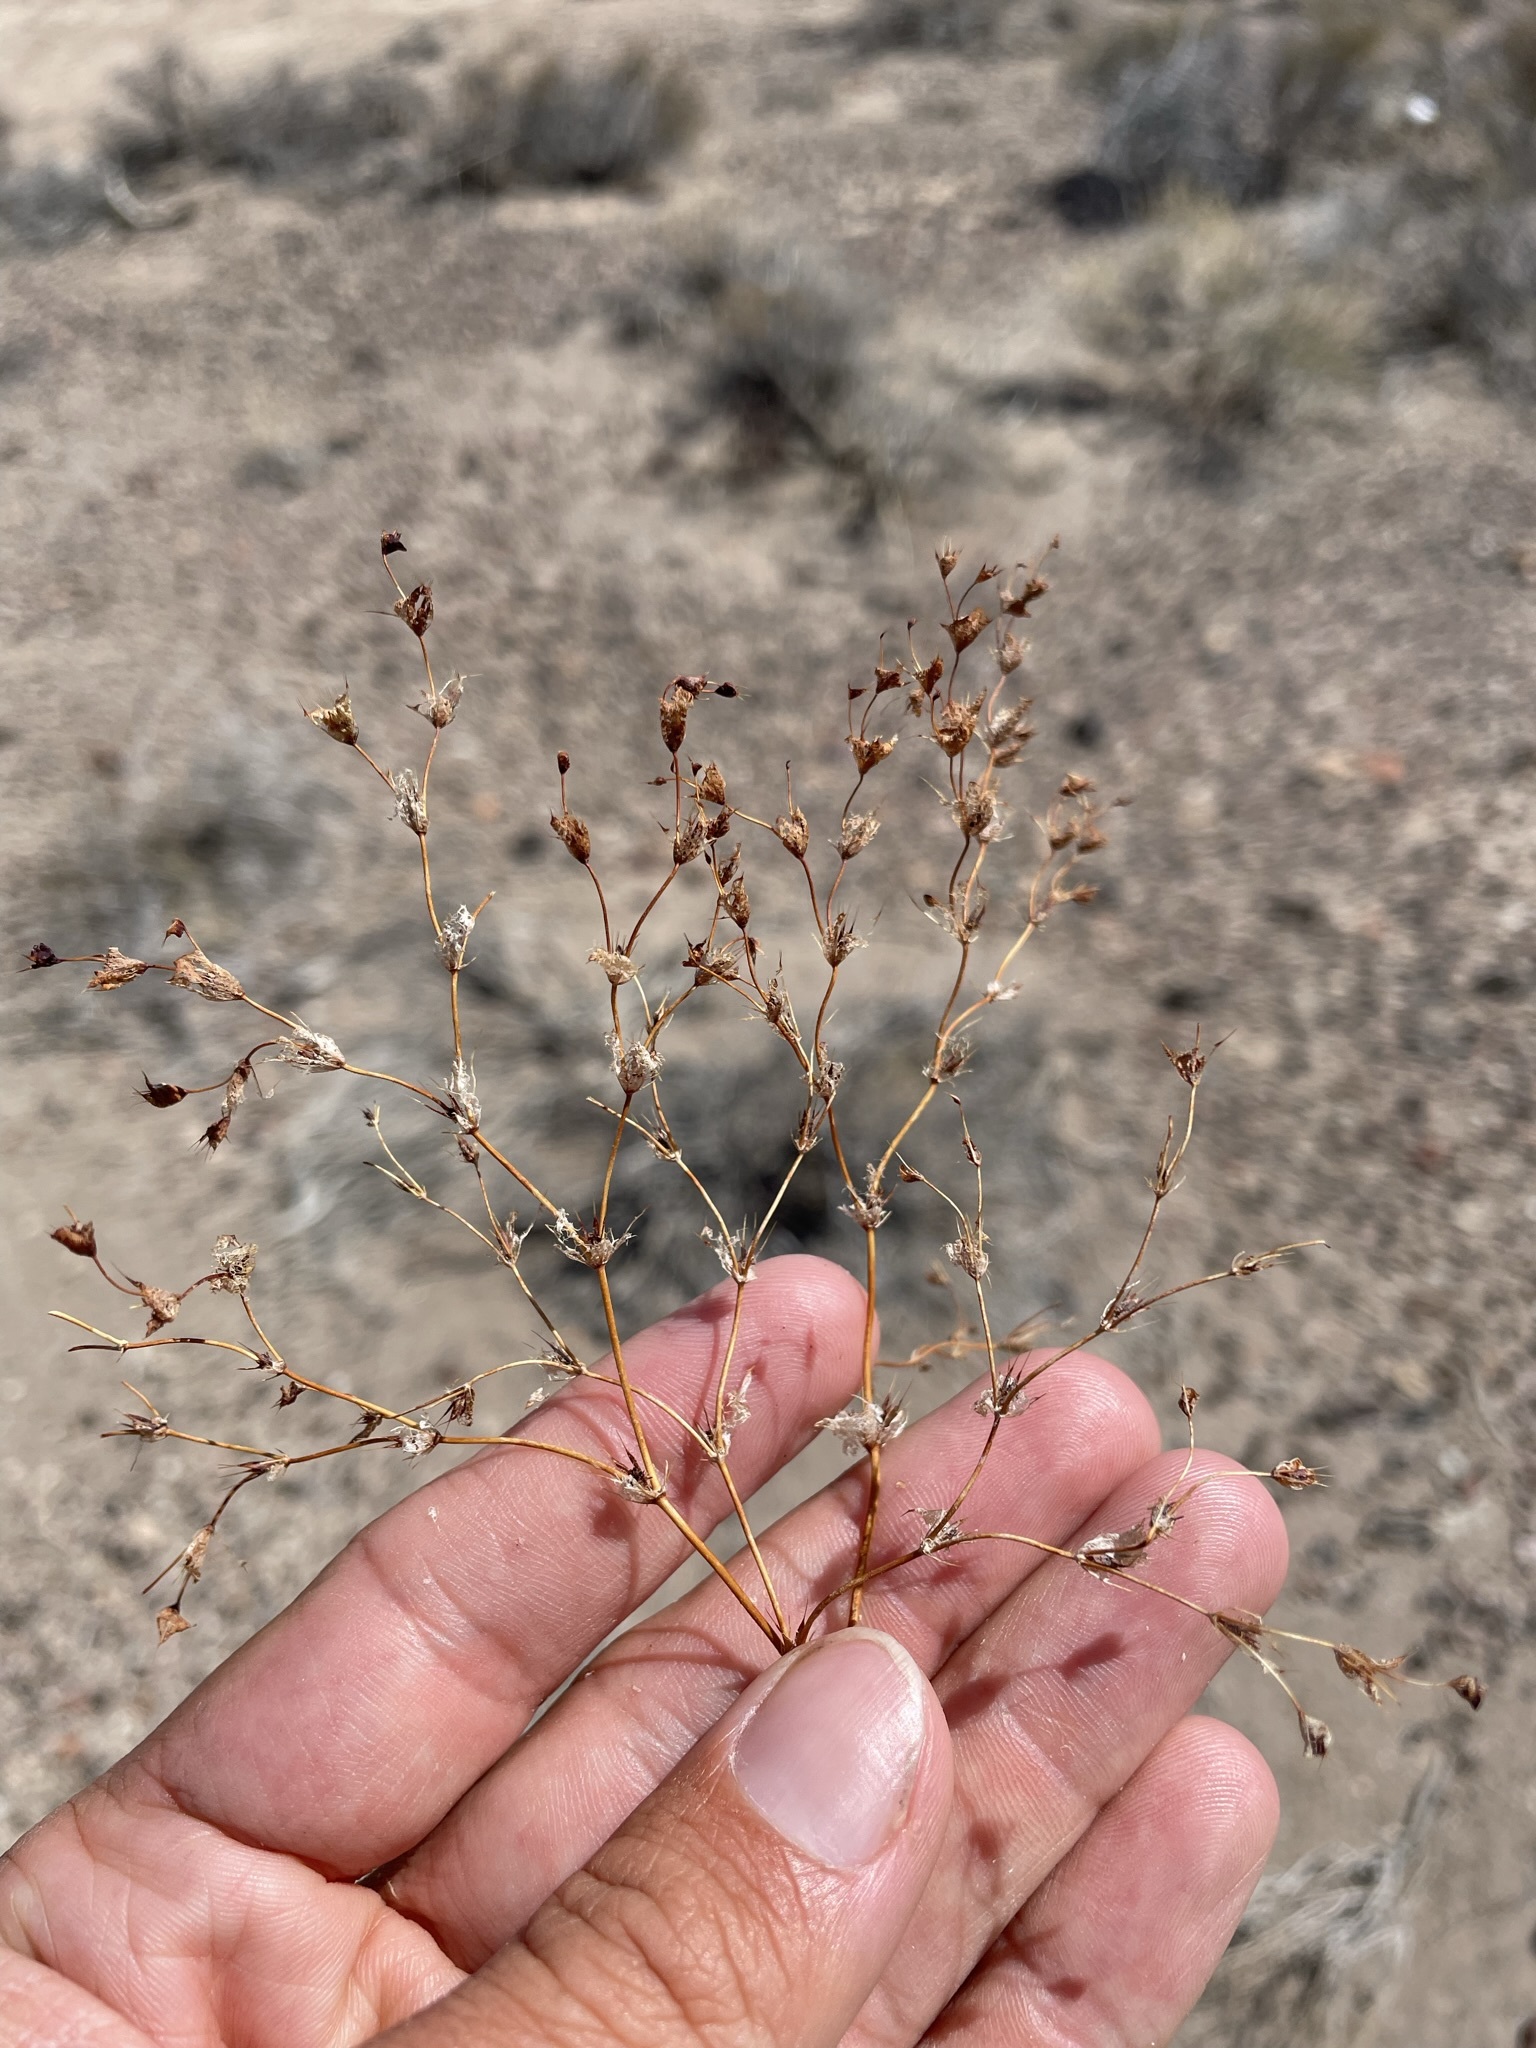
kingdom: Plantae
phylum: Tracheophyta
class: Magnoliopsida
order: Caryophyllales
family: Polygonaceae
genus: Oxytheca
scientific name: Oxytheca perfoliata
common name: Round-leaf puncturebract
